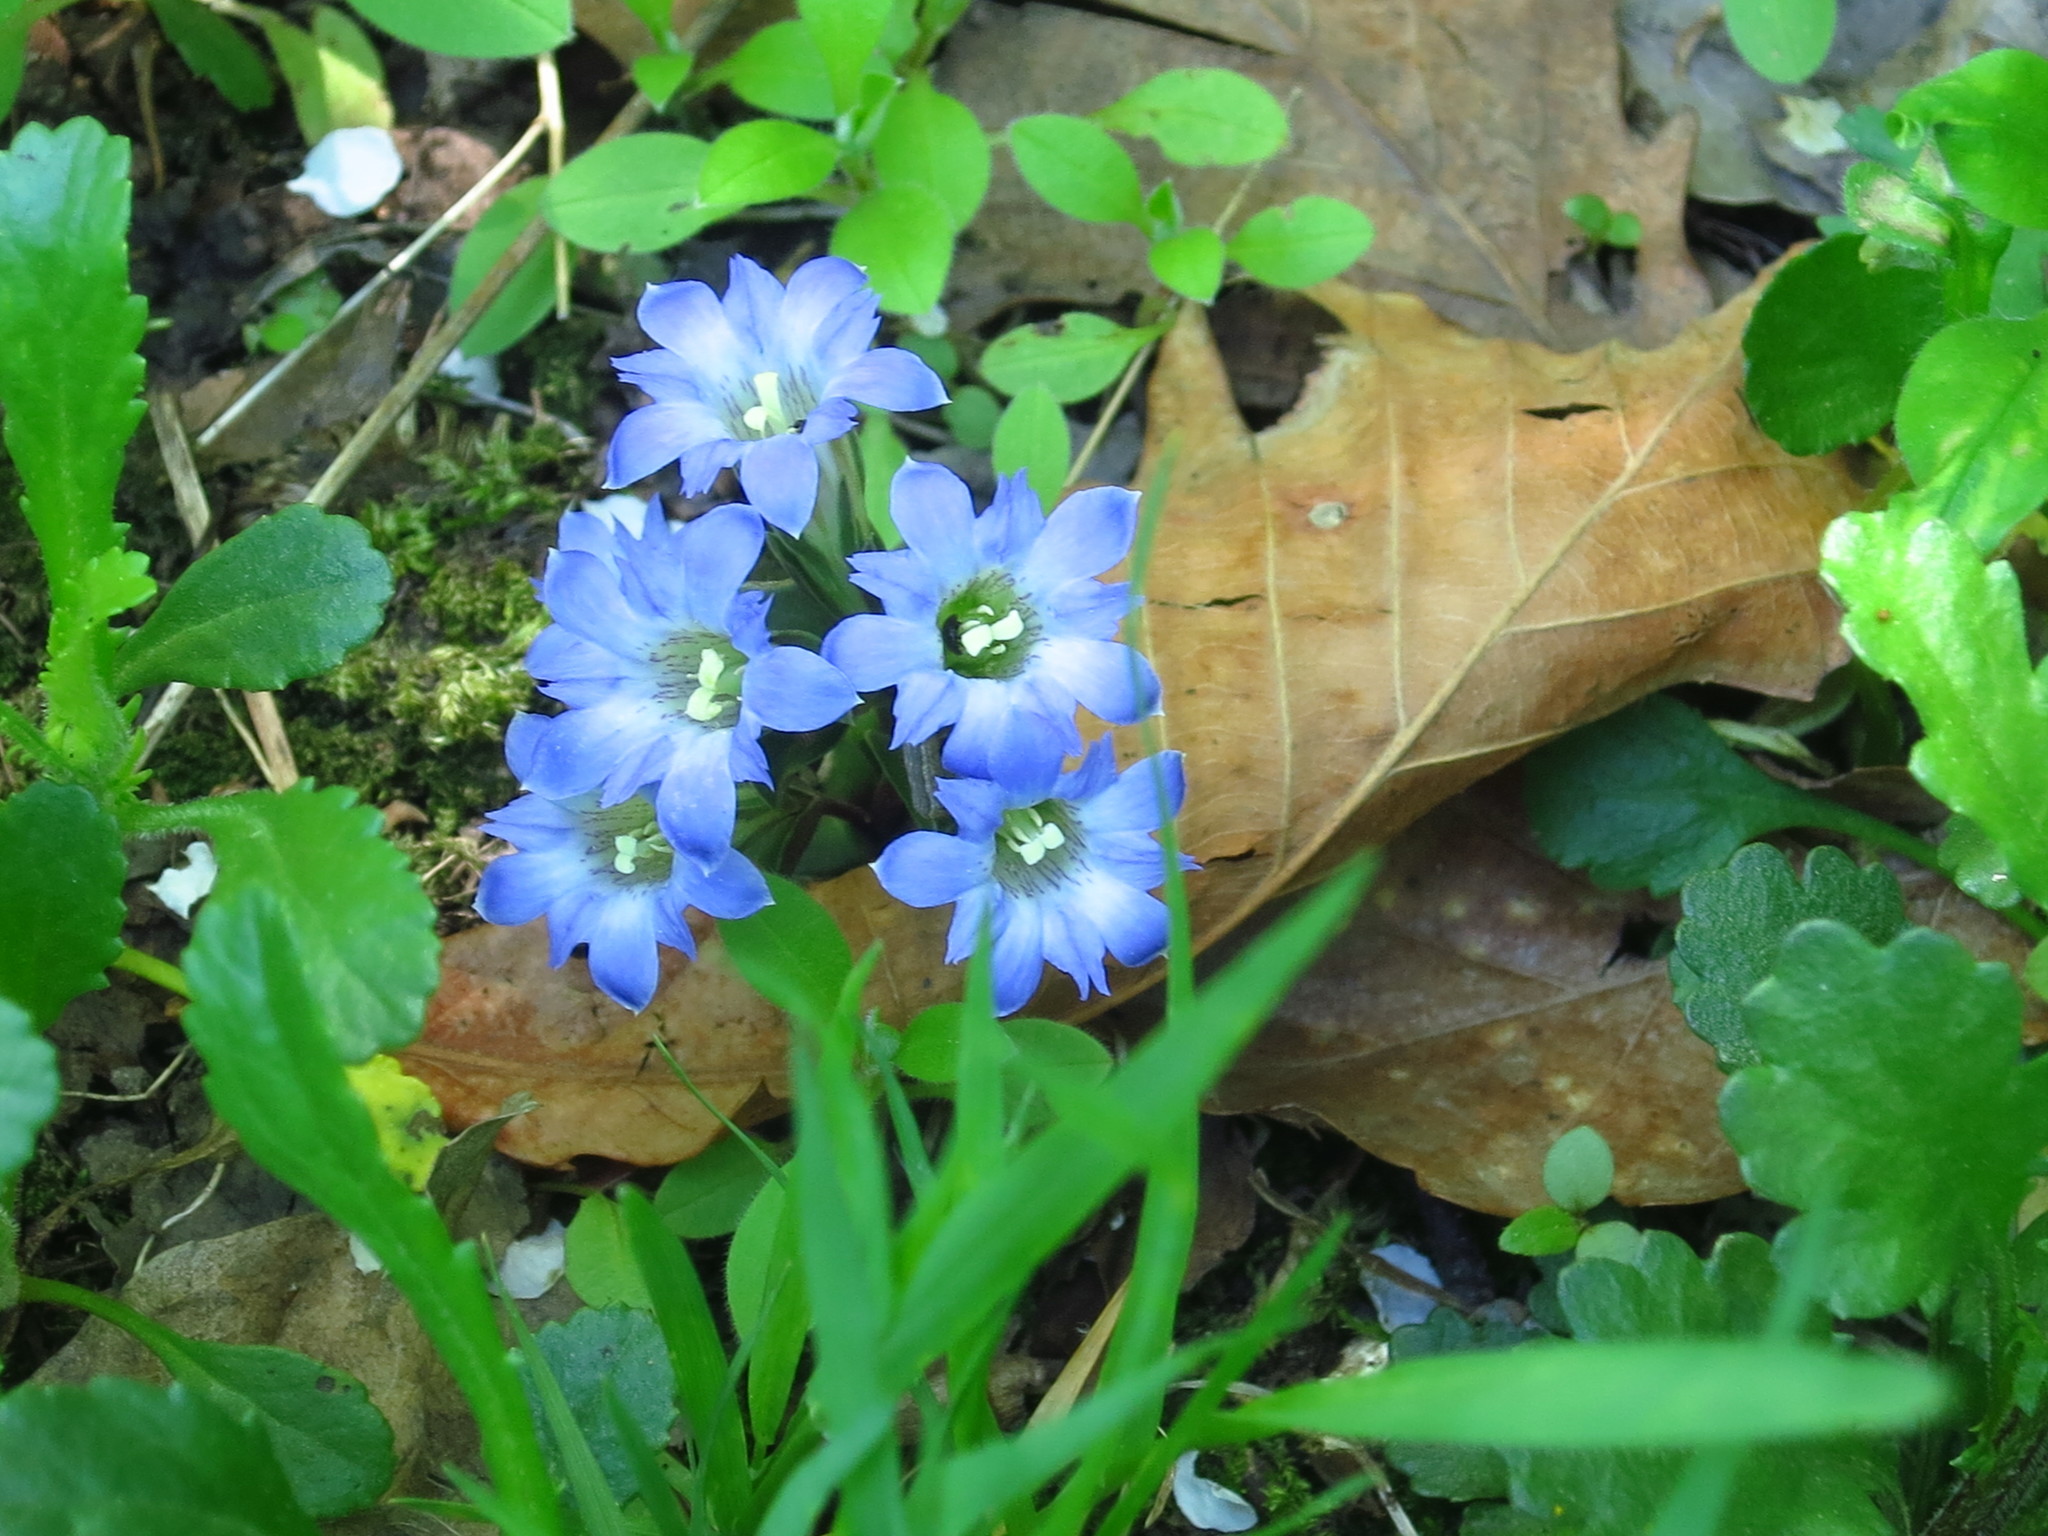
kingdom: Plantae
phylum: Tracheophyta
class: Magnoliopsida
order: Gentianales
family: Gentianaceae
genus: Gentiana
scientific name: Gentiana zollingeri
